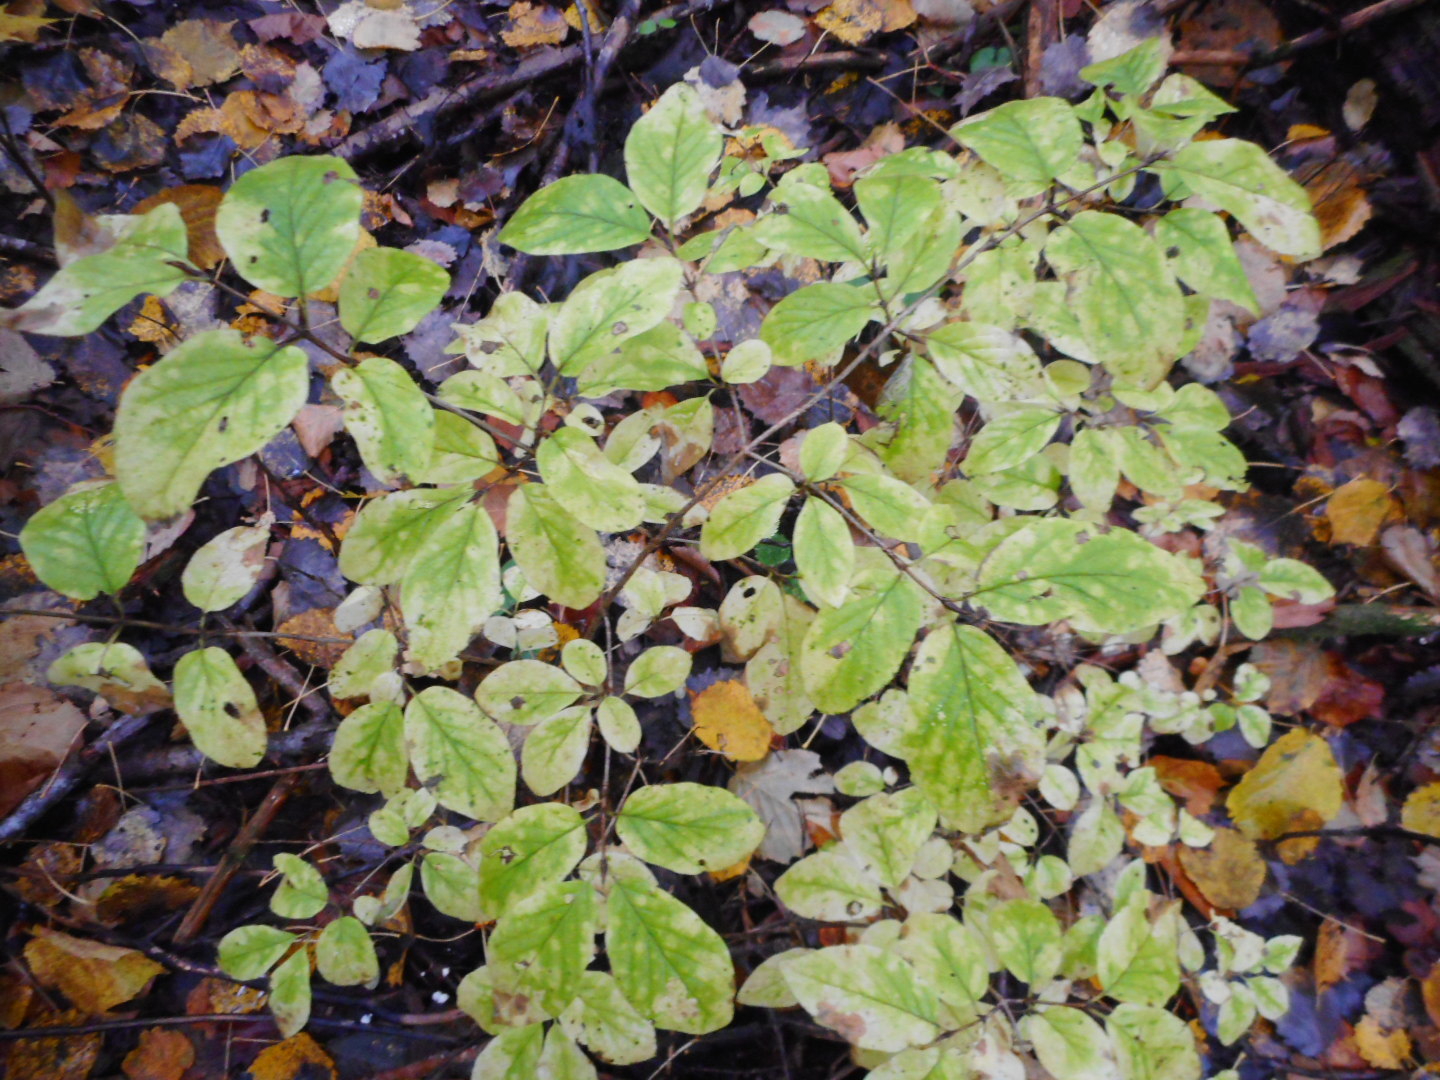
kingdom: Plantae
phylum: Tracheophyta
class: Magnoliopsida
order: Dipsacales
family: Caprifoliaceae
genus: Lonicera
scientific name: Lonicera xylosteum
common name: Fly honeysuckle
